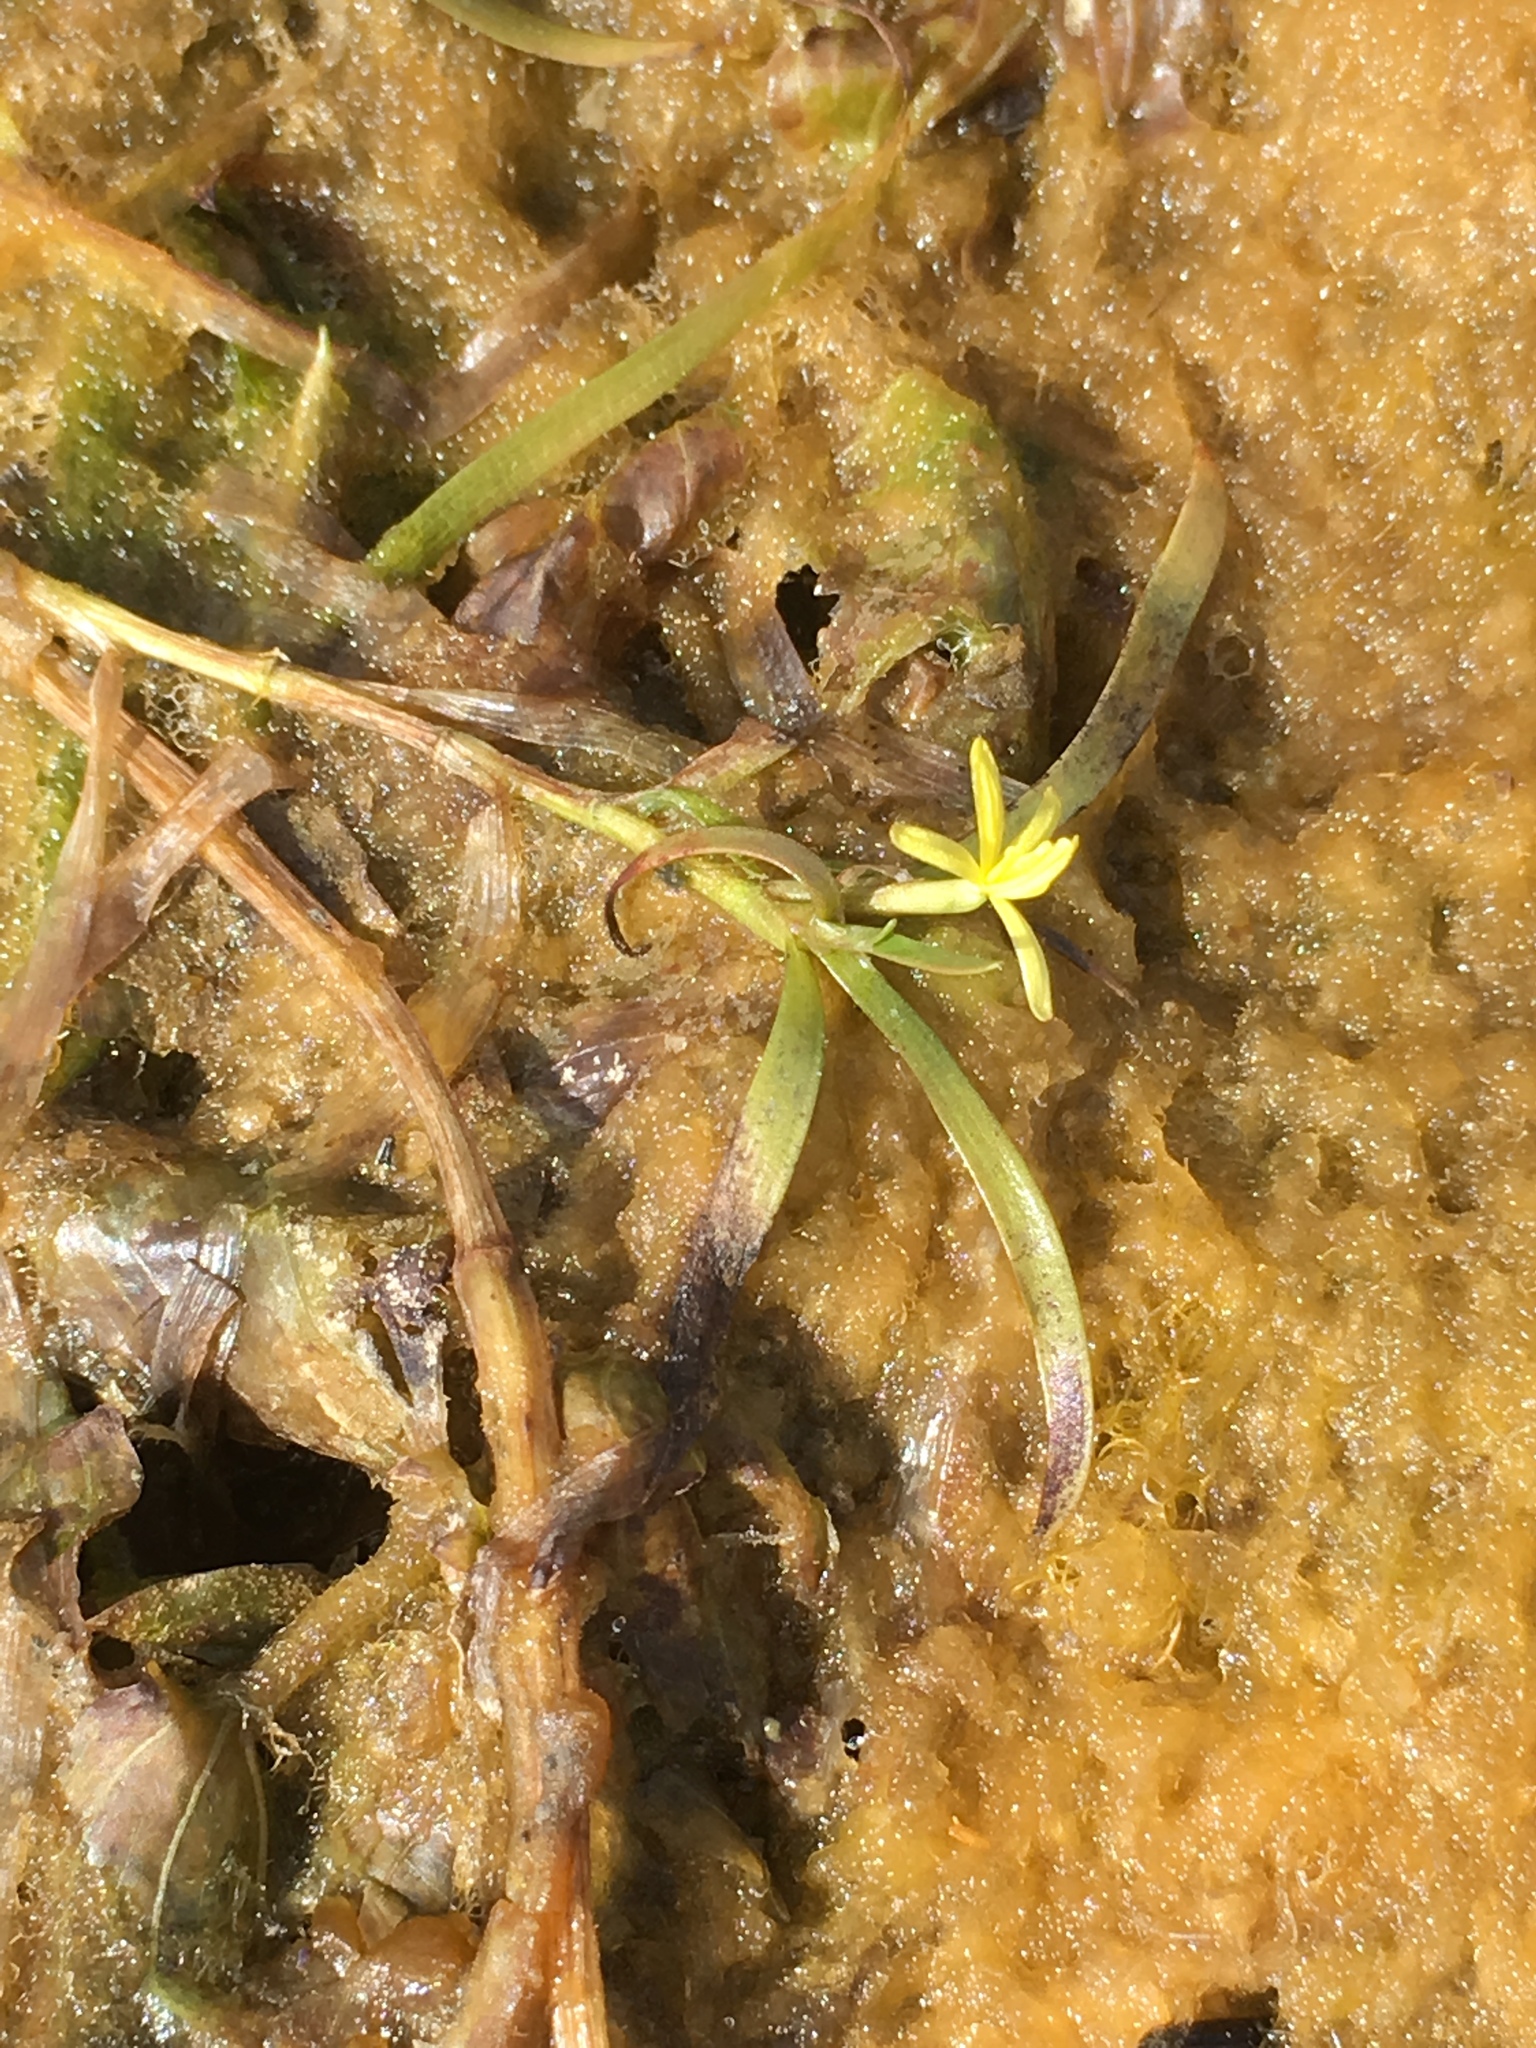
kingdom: Plantae
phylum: Tracheophyta
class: Liliopsida
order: Commelinales
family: Pontederiaceae
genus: Heteranthera
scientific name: Heteranthera dubia
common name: Grass-leaved mud plantain
